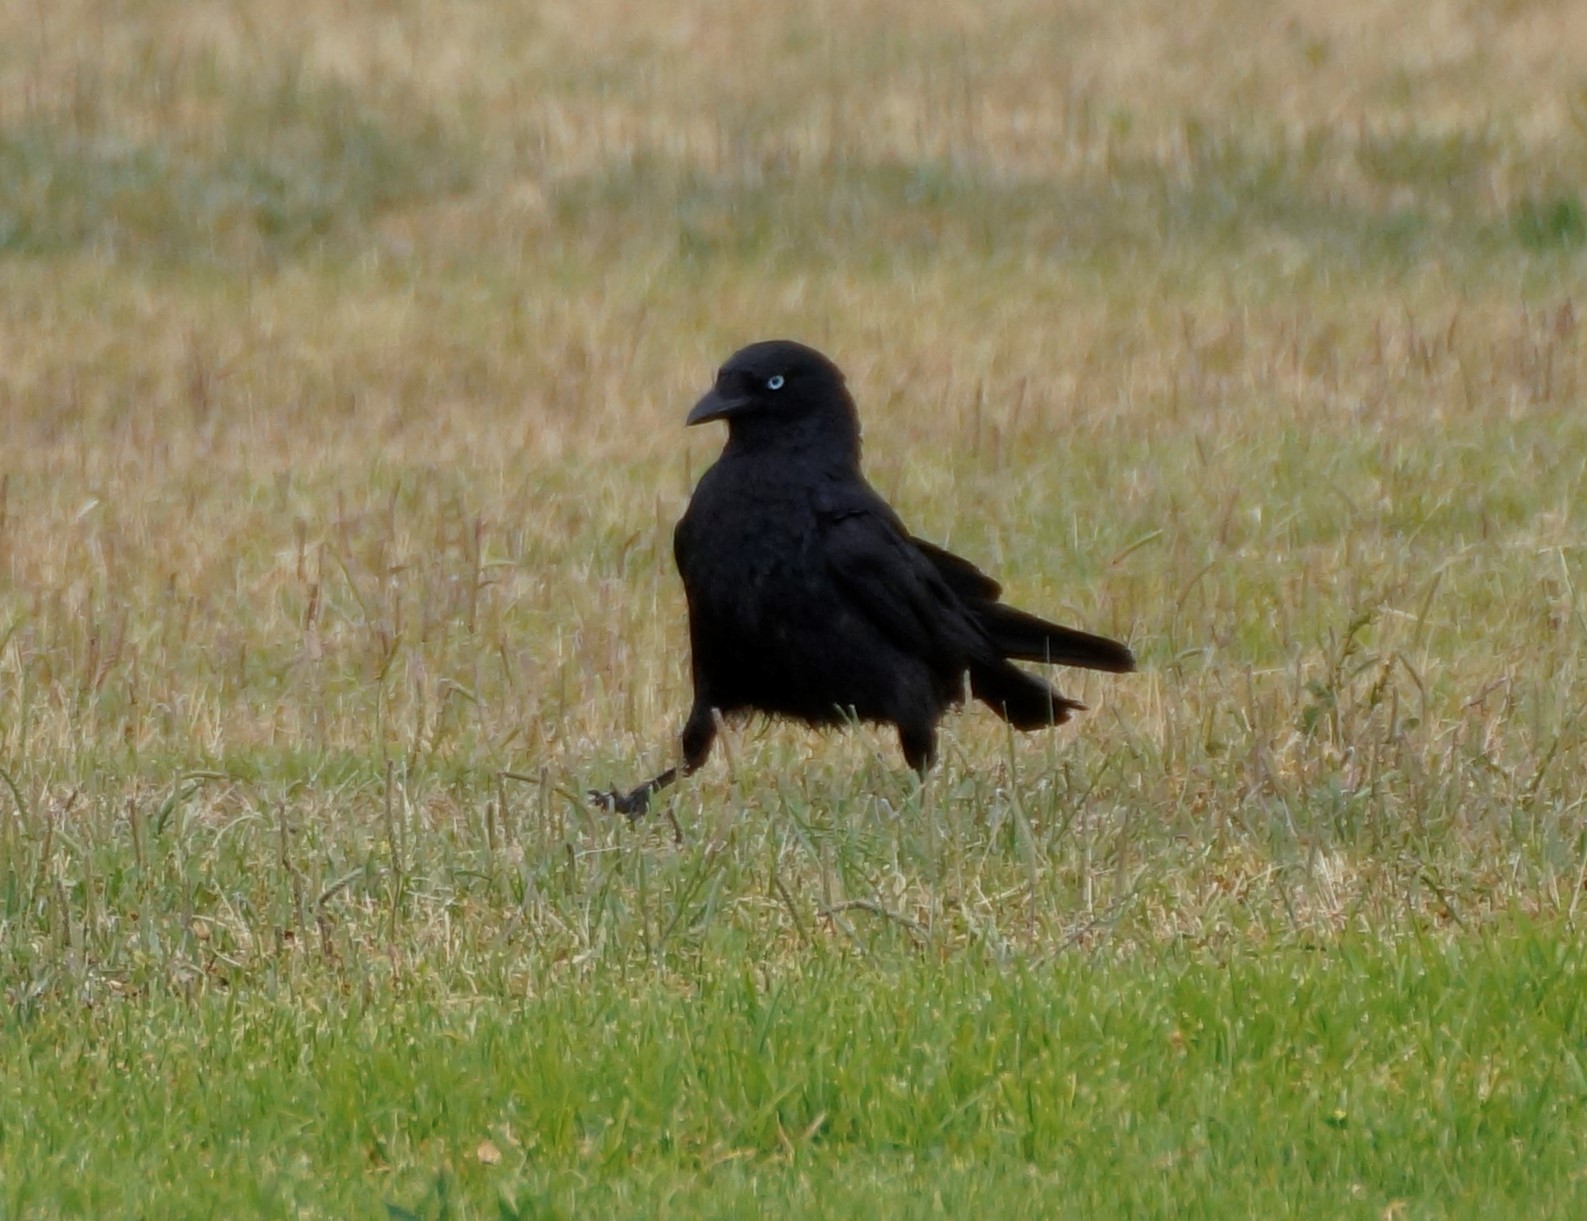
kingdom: Animalia
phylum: Chordata
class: Aves
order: Passeriformes
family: Corvidae
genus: Corvus
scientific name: Corvus mellori
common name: Little raven
